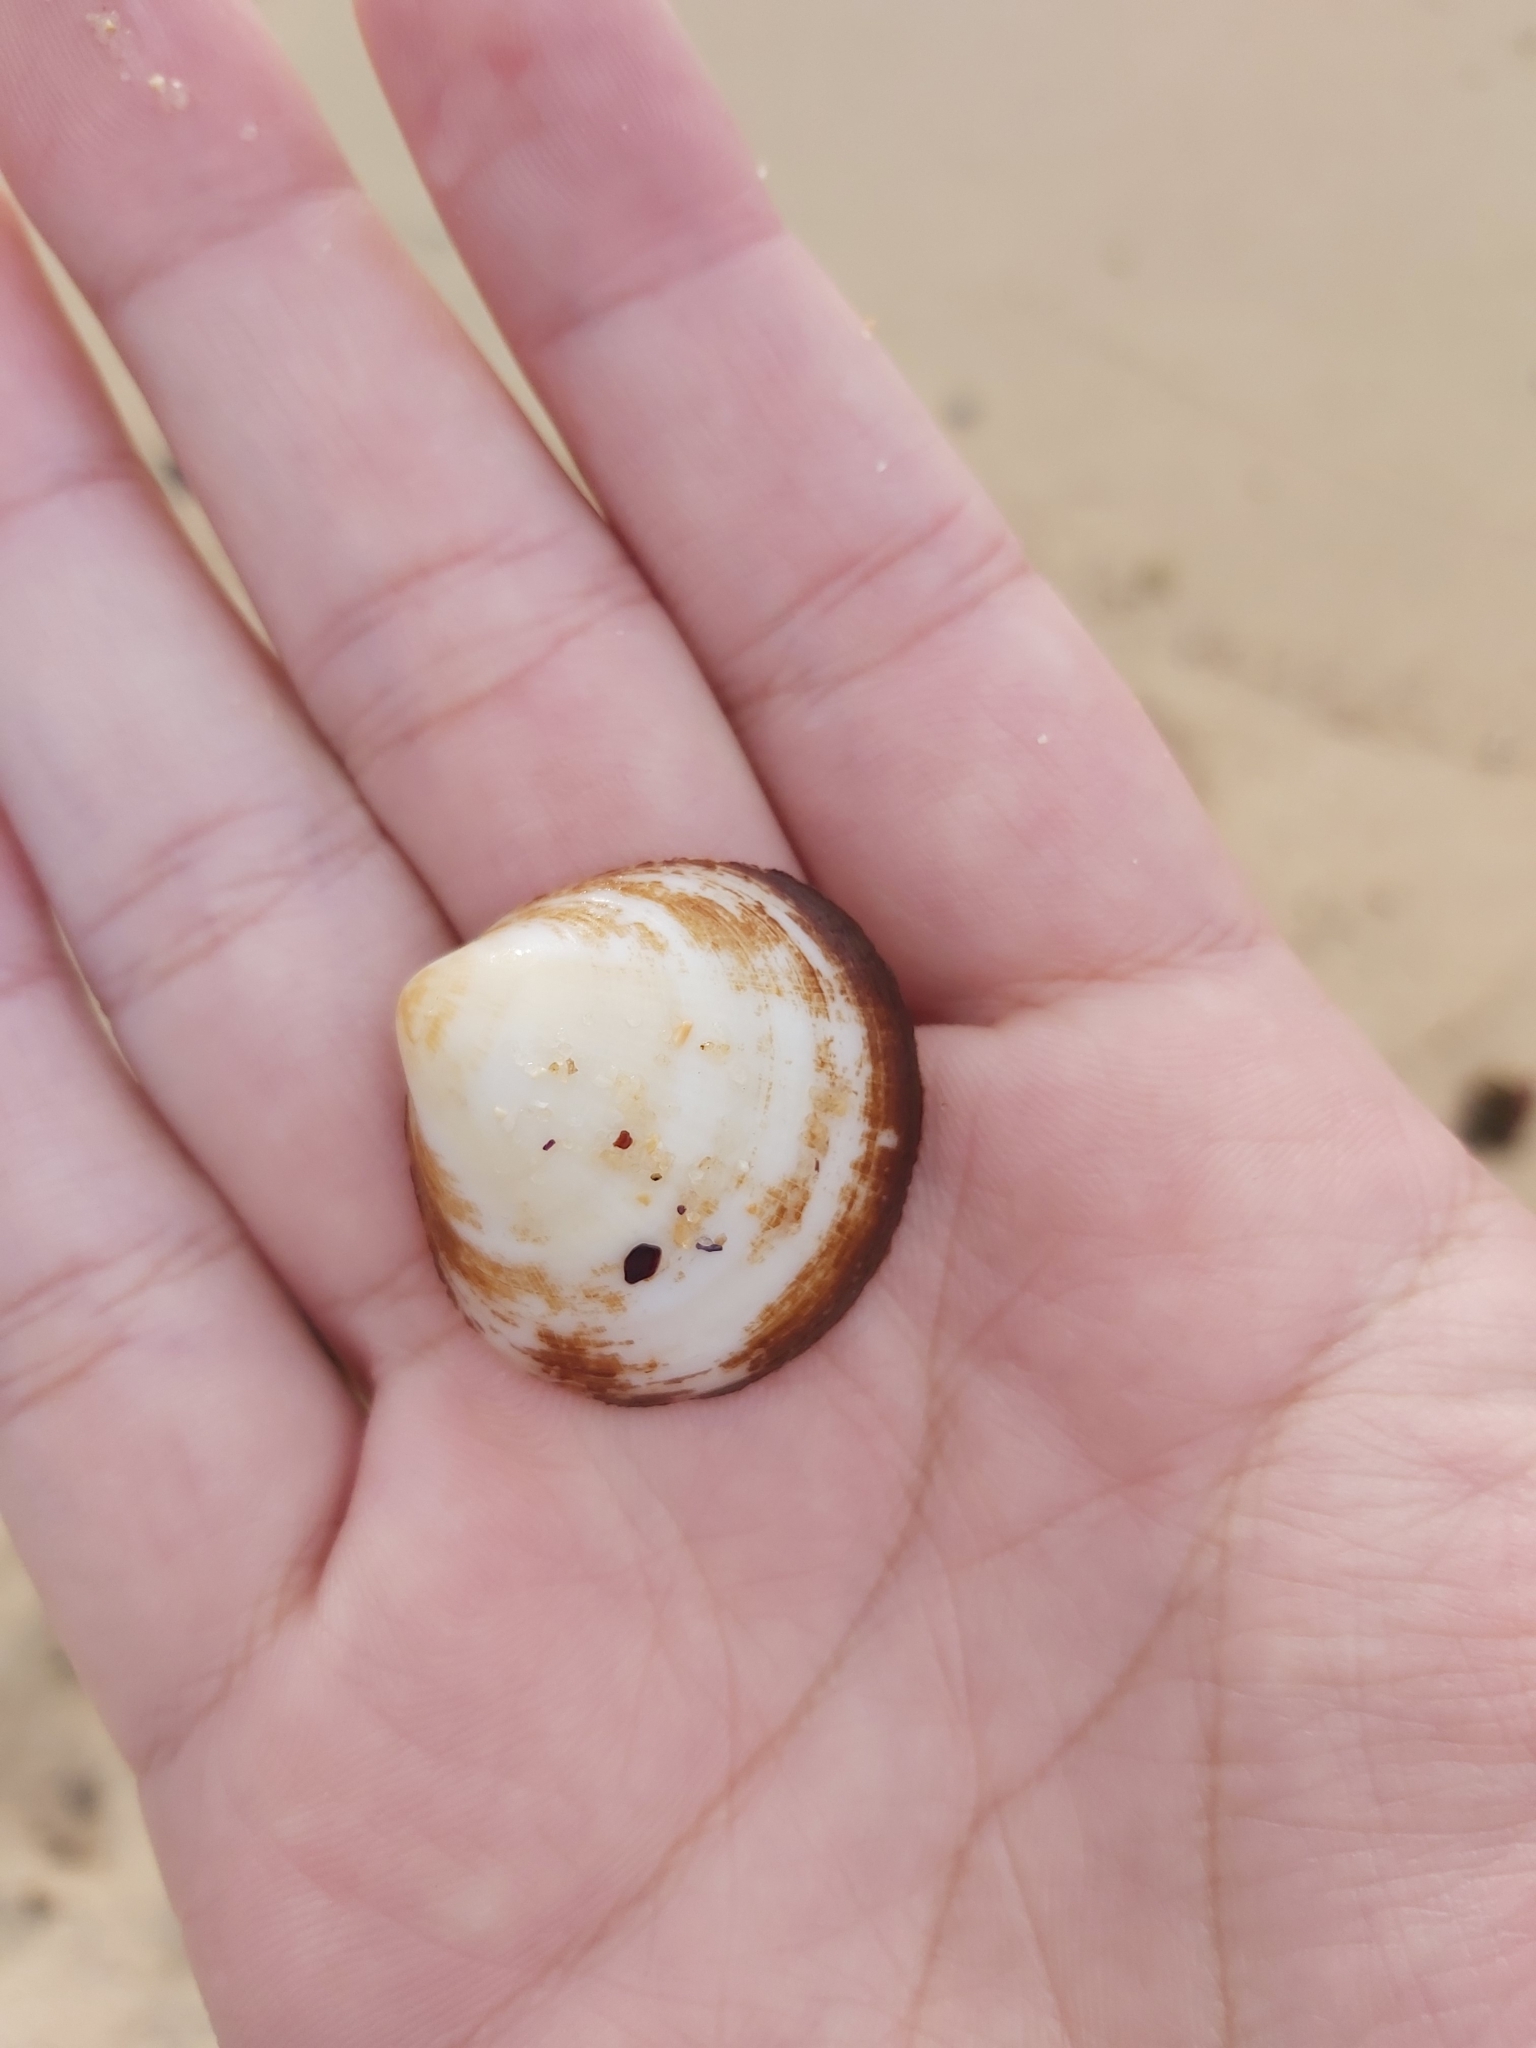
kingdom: Animalia
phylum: Mollusca
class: Bivalvia
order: Arcida
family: Glycymerididae
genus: Glycymeris
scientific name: Glycymeris holoserica
